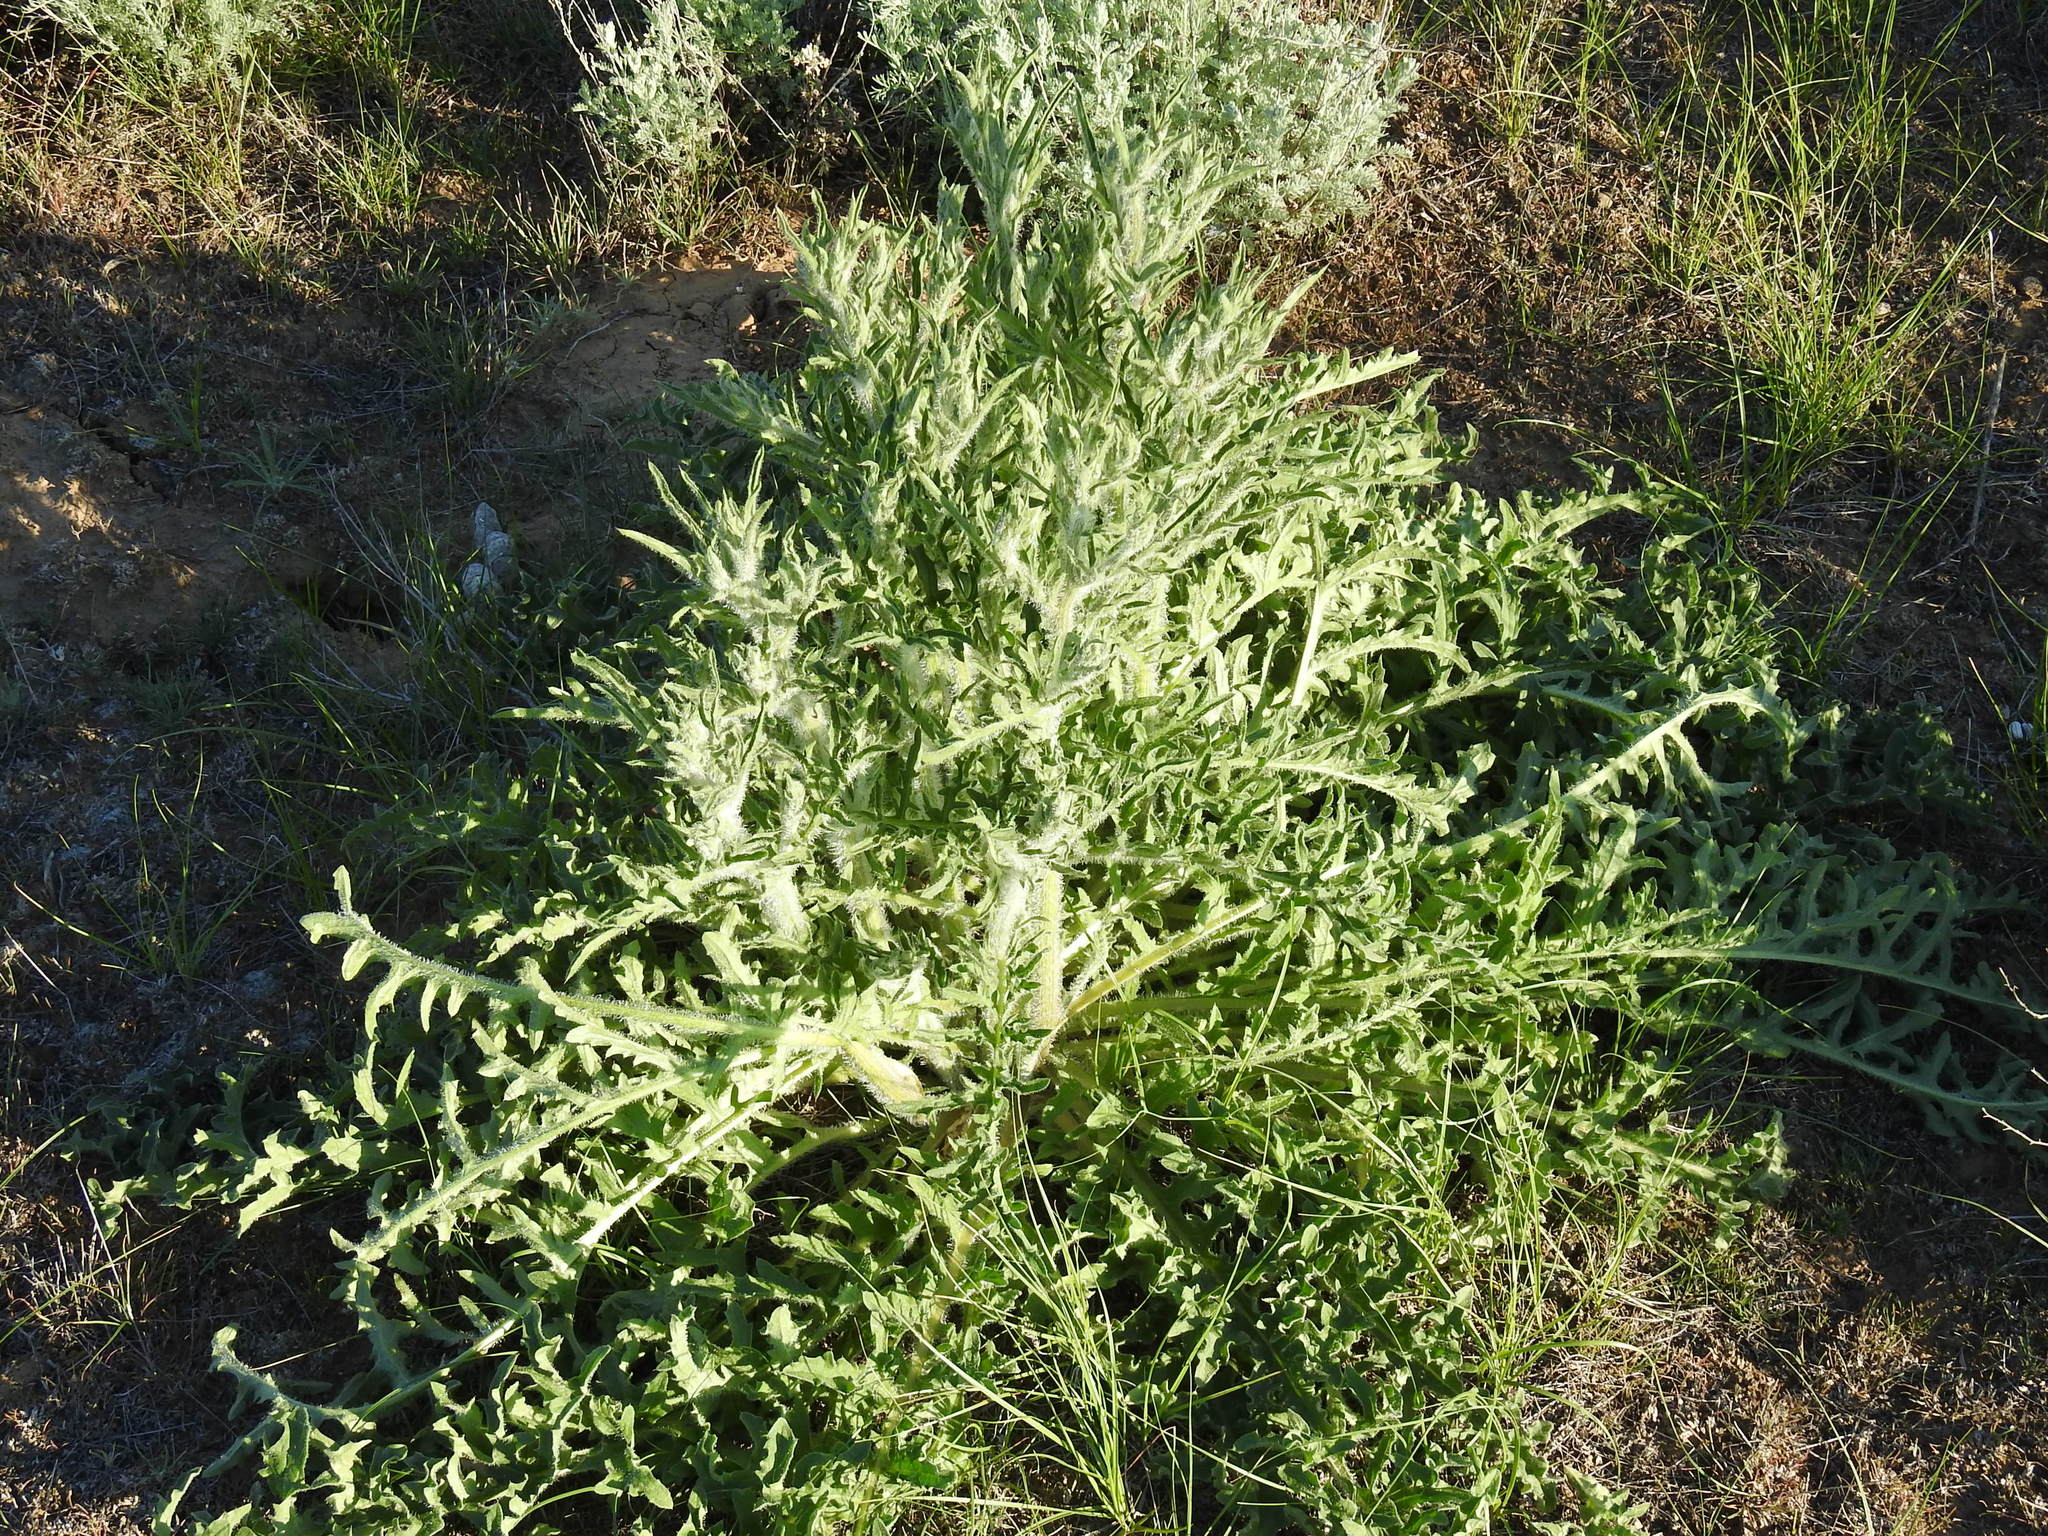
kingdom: Plantae
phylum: Tracheophyta
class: Magnoliopsida
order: Asterales
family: Asteraceae
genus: Klasea
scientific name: Klasea erucifolia
